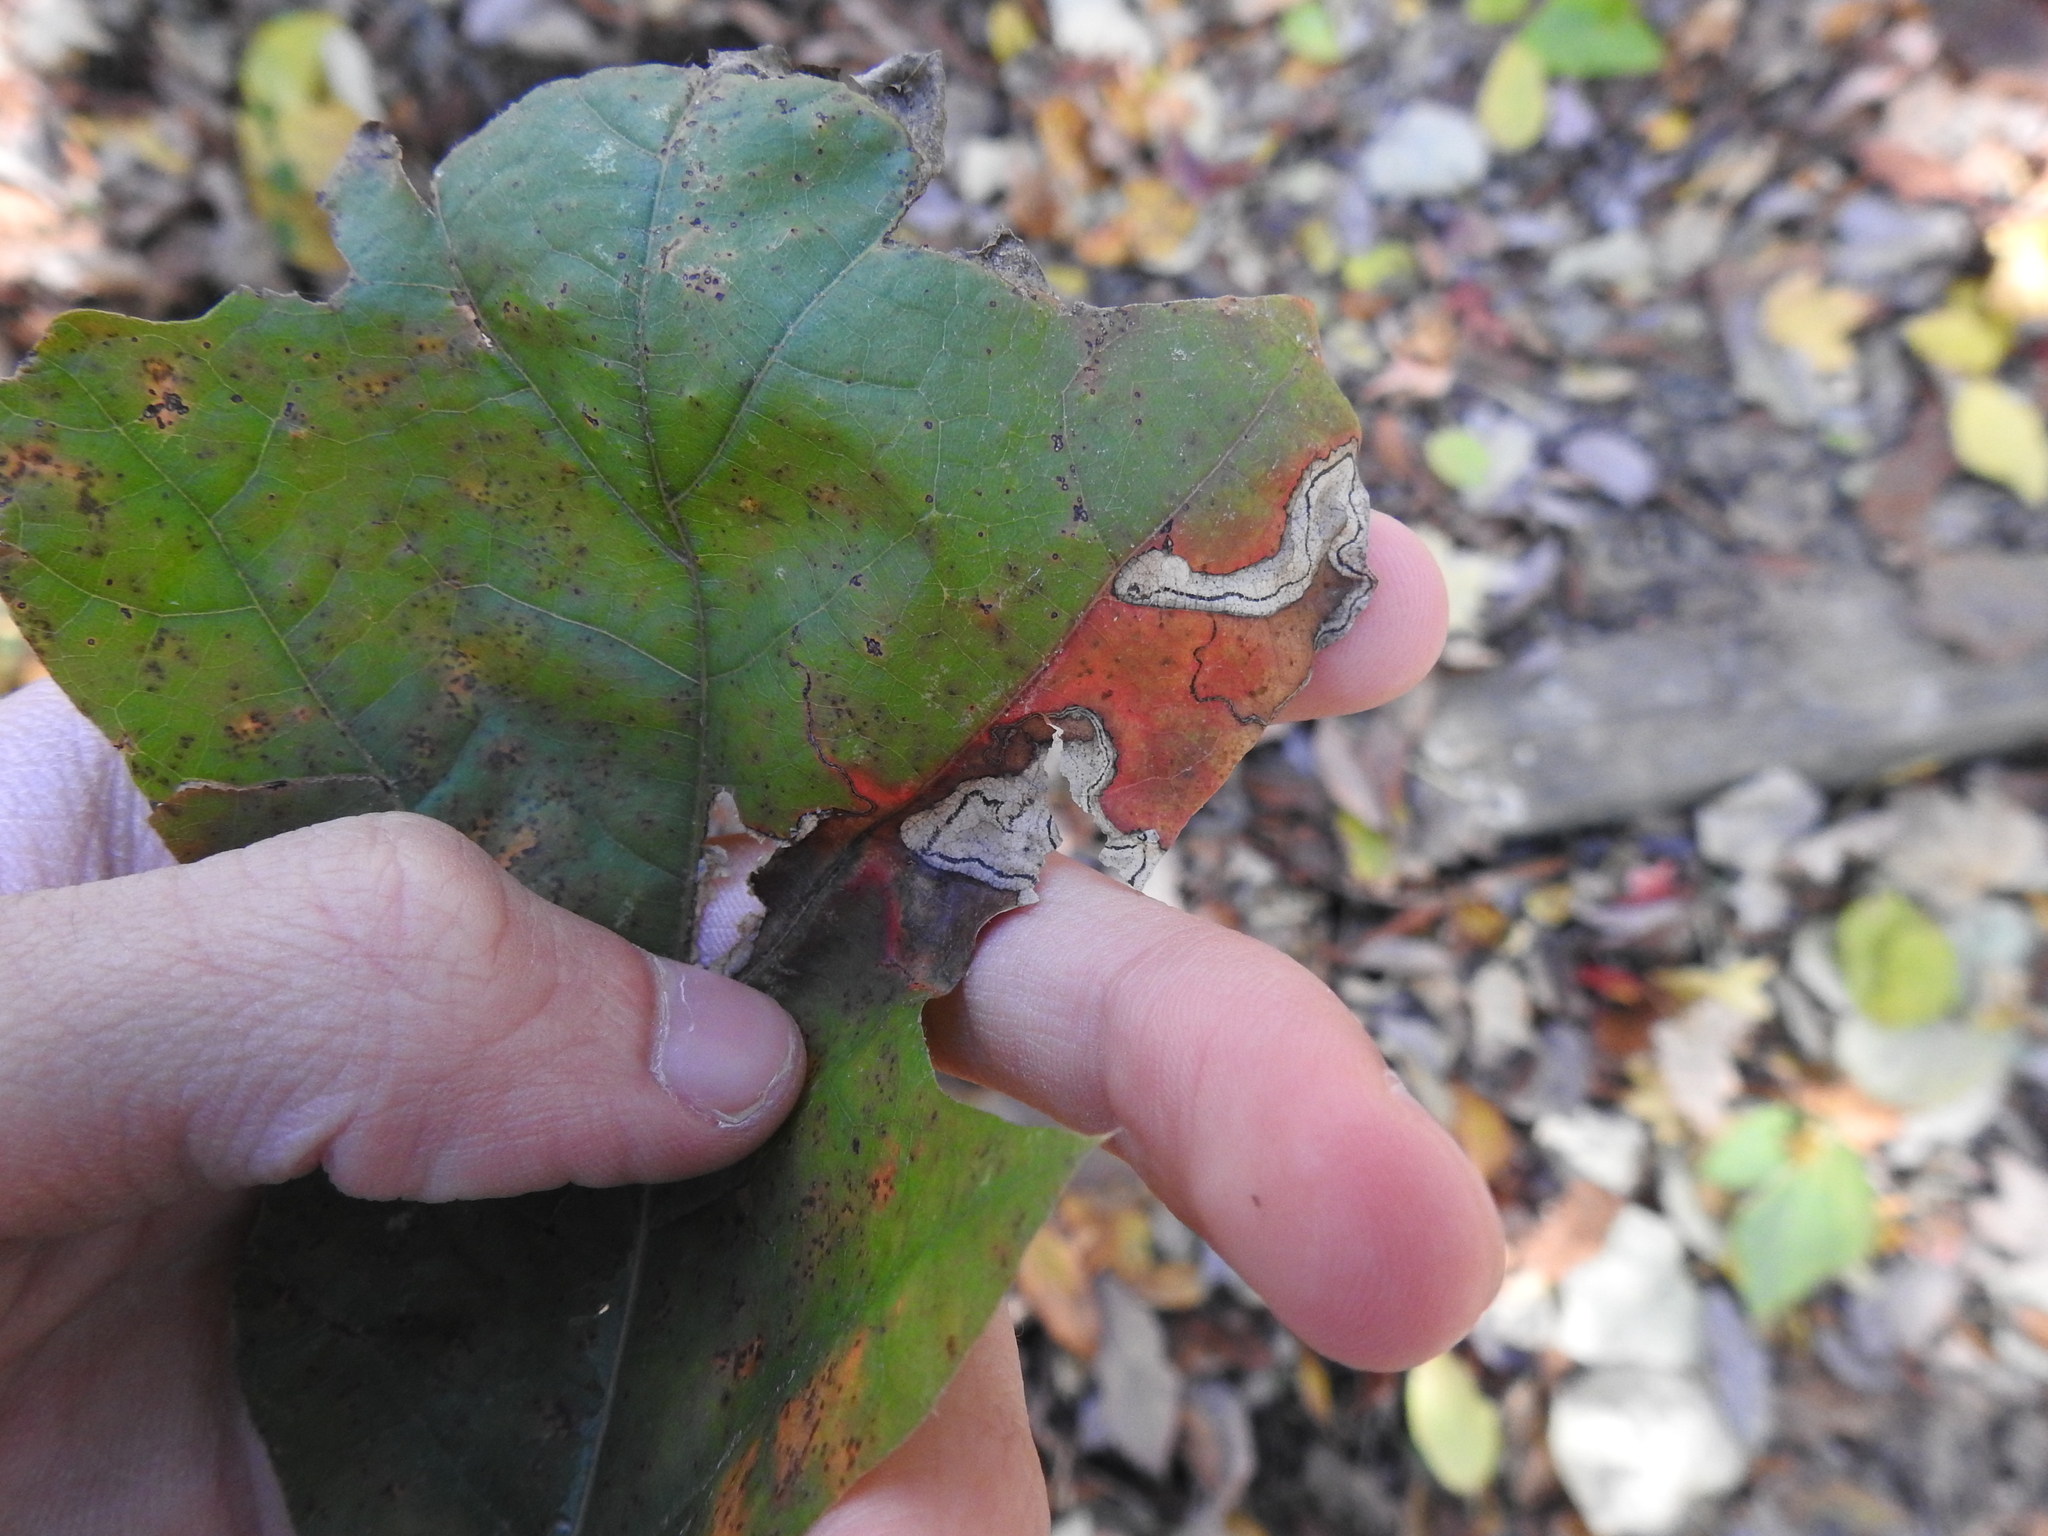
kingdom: Animalia
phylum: Arthropoda
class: Insecta
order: Lepidoptera
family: Nepticulidae
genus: Stigmella
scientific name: Stigmella quercipulchella
